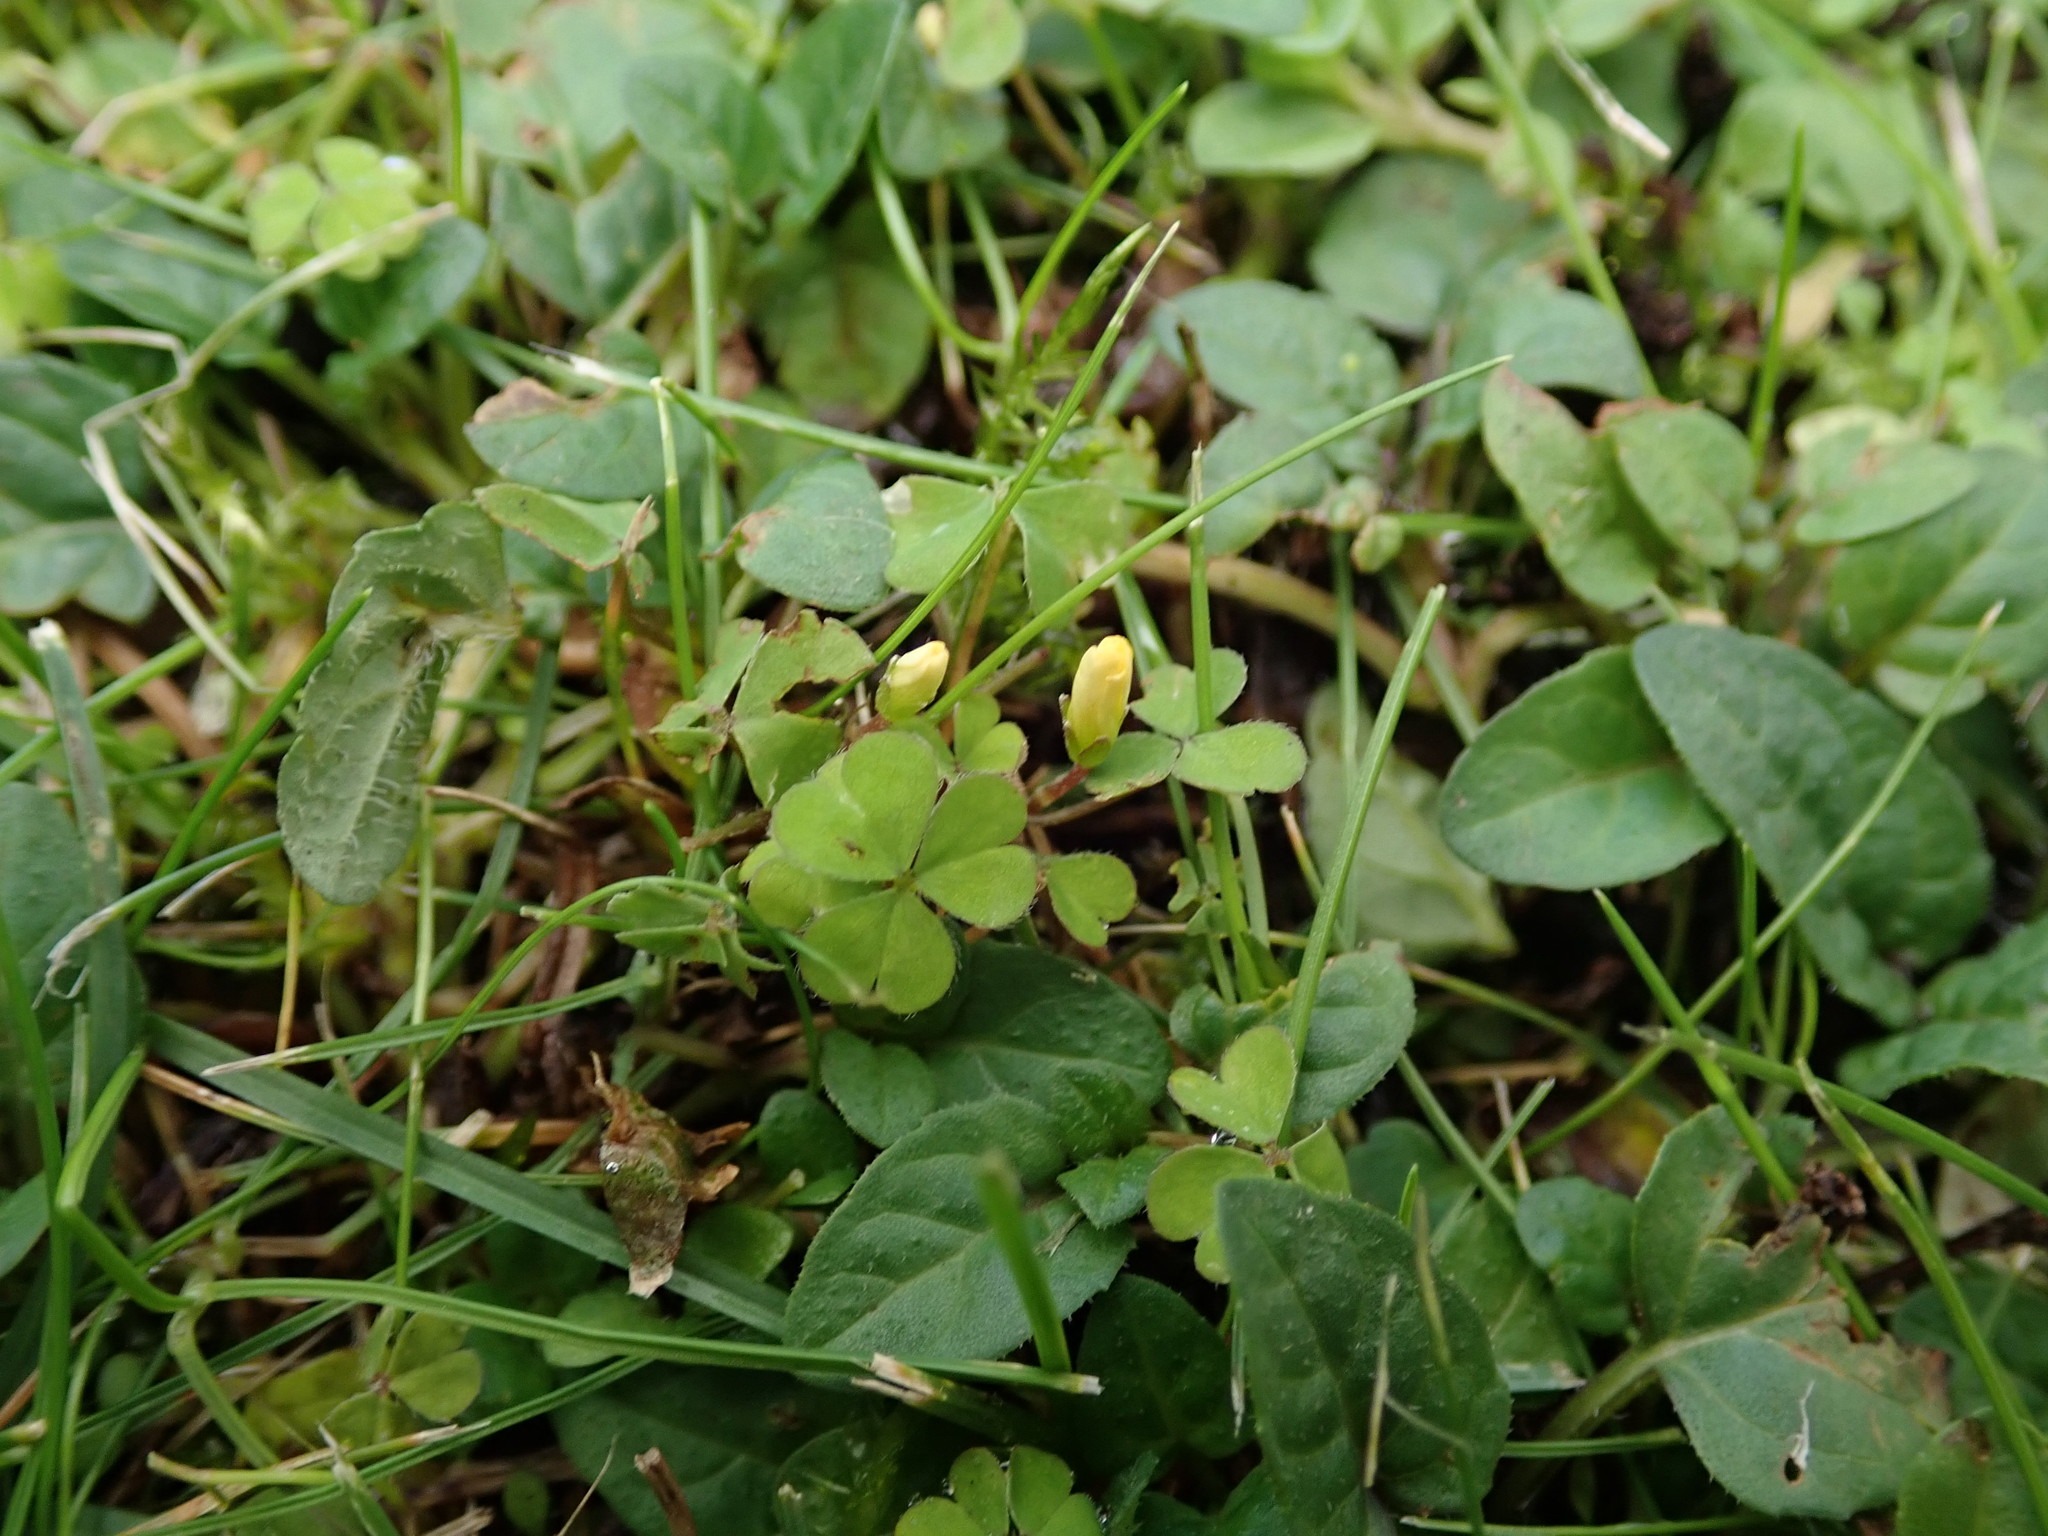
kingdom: Plantae
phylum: Tracheophyta
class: Magnoliopsida
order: Oxalidales
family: Oxalidaceae
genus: Oxalis
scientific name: Oxalis exilis
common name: Least yellow-sorrel
